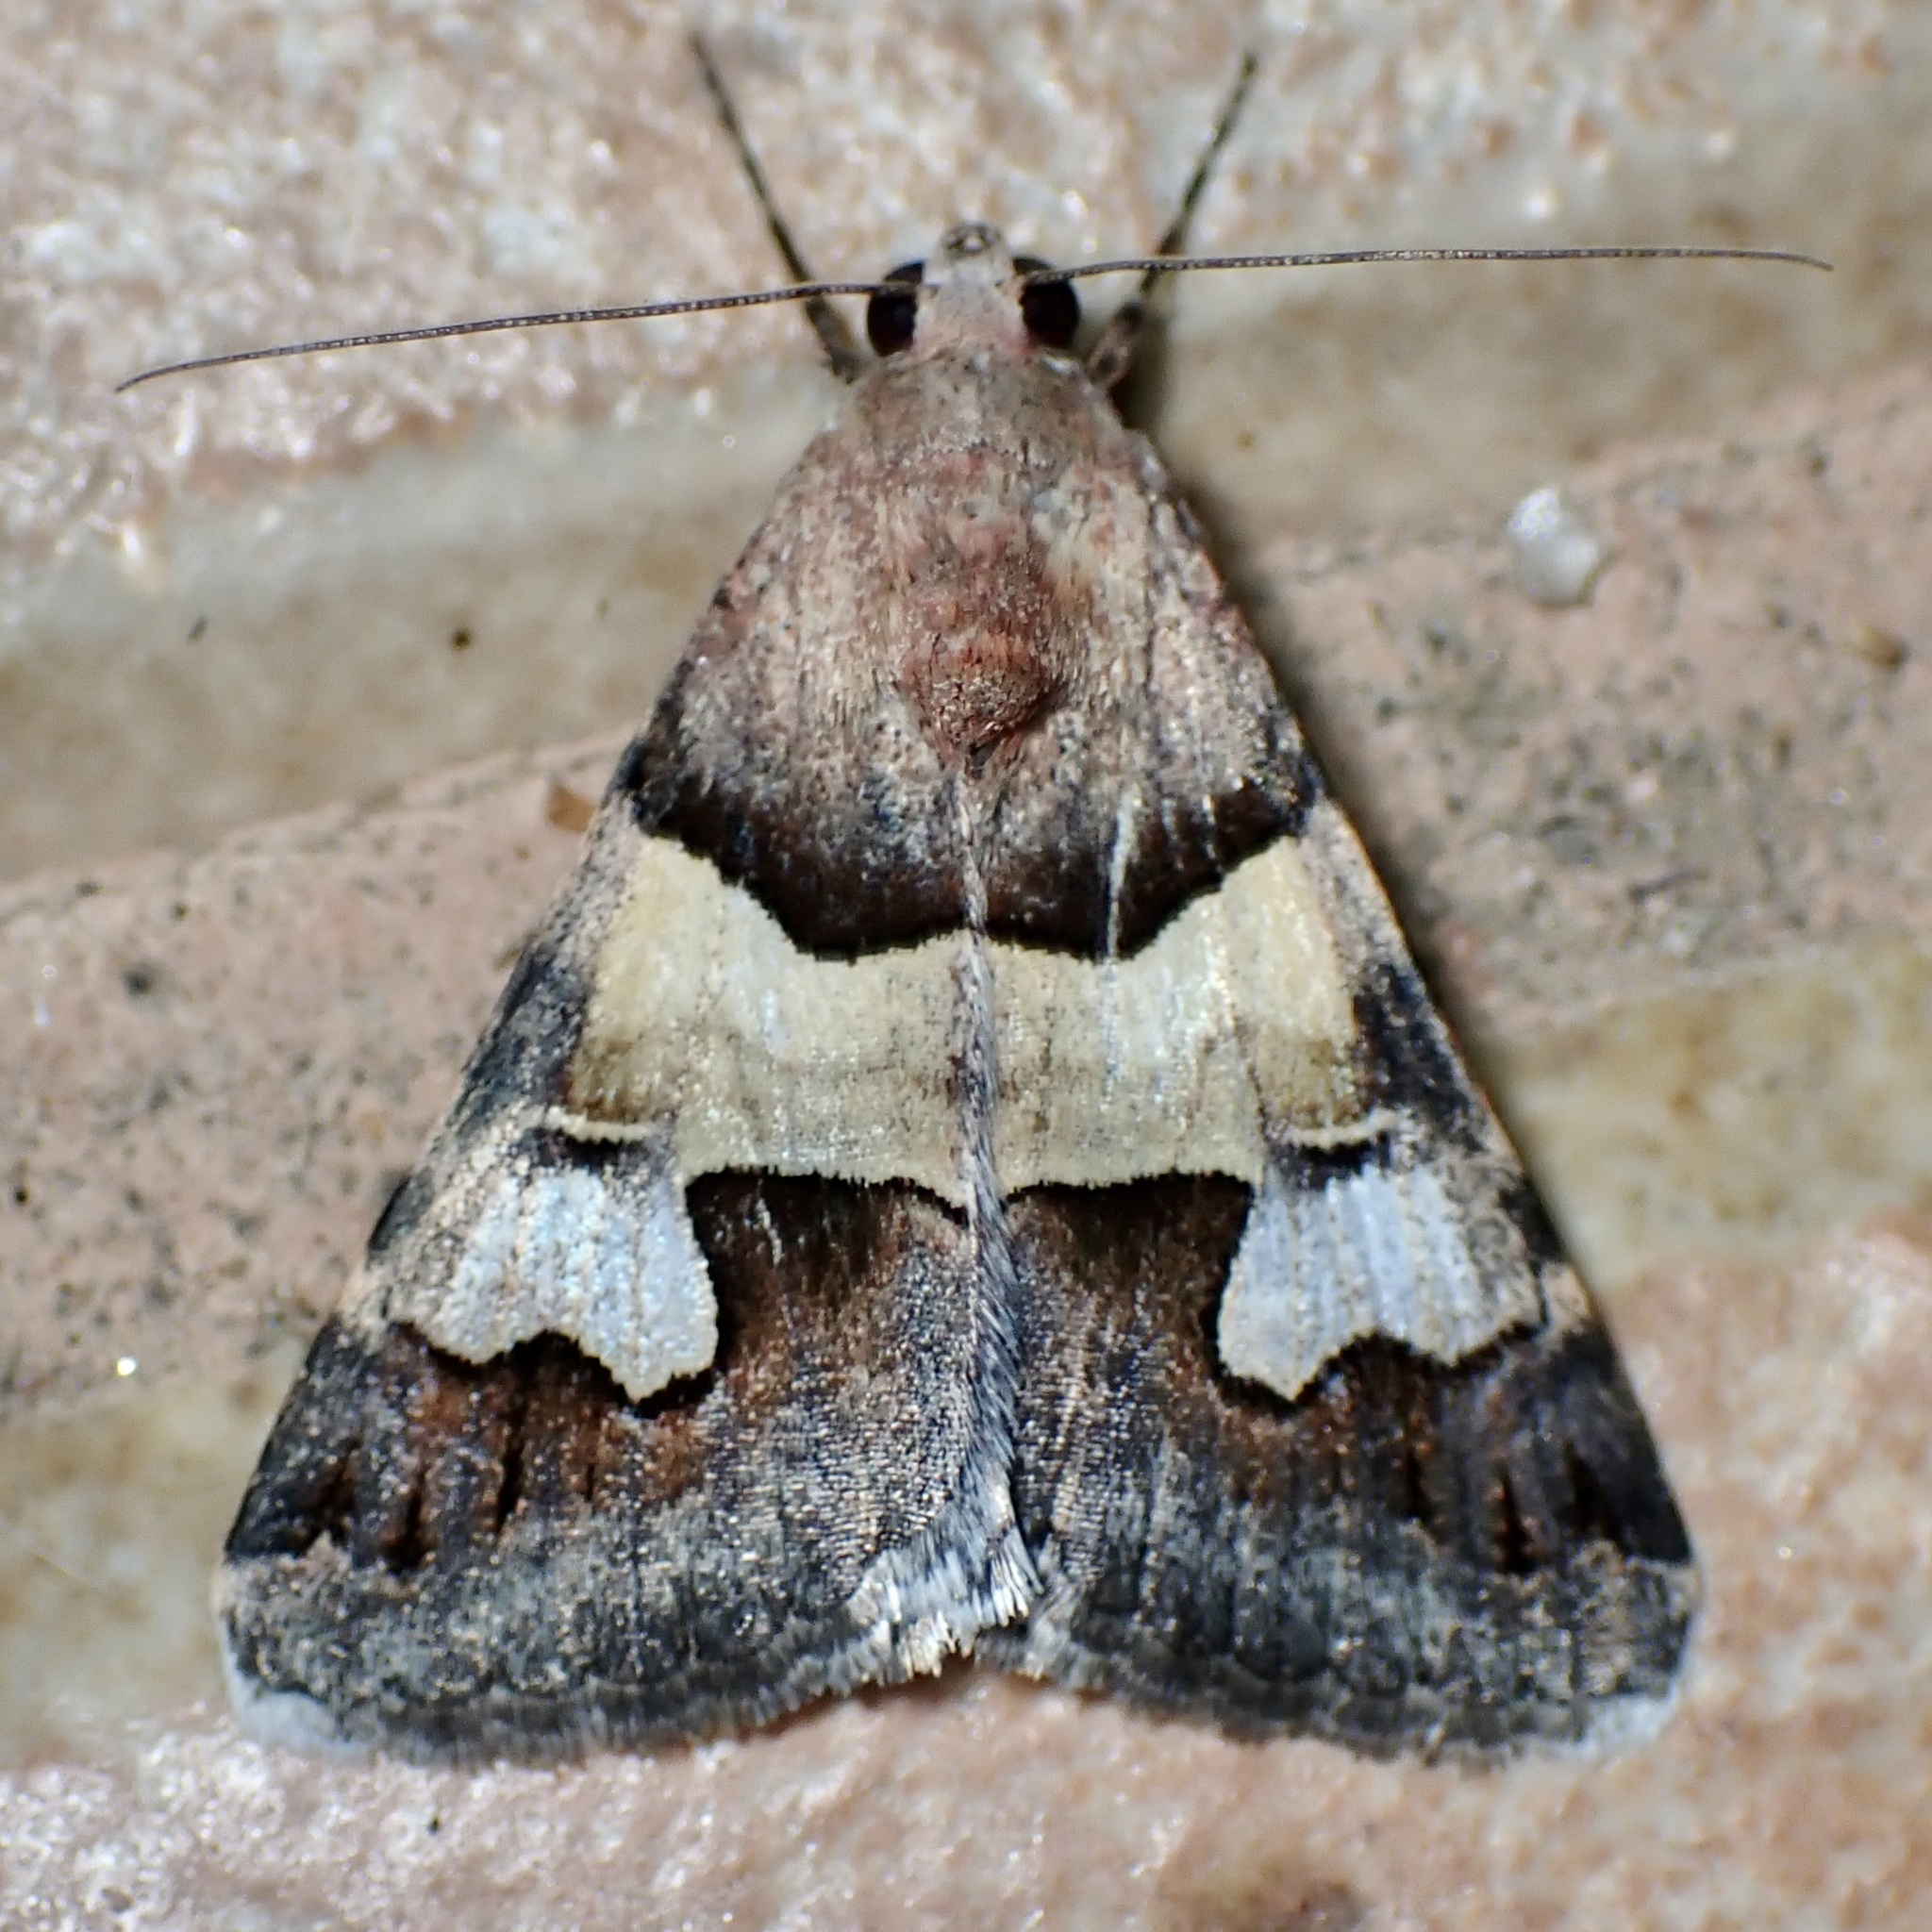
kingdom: Animalia
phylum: Arthropoda
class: Insecta
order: Lepidoptera
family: Erebidae
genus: Drasteria
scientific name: Drasteria pallescens
